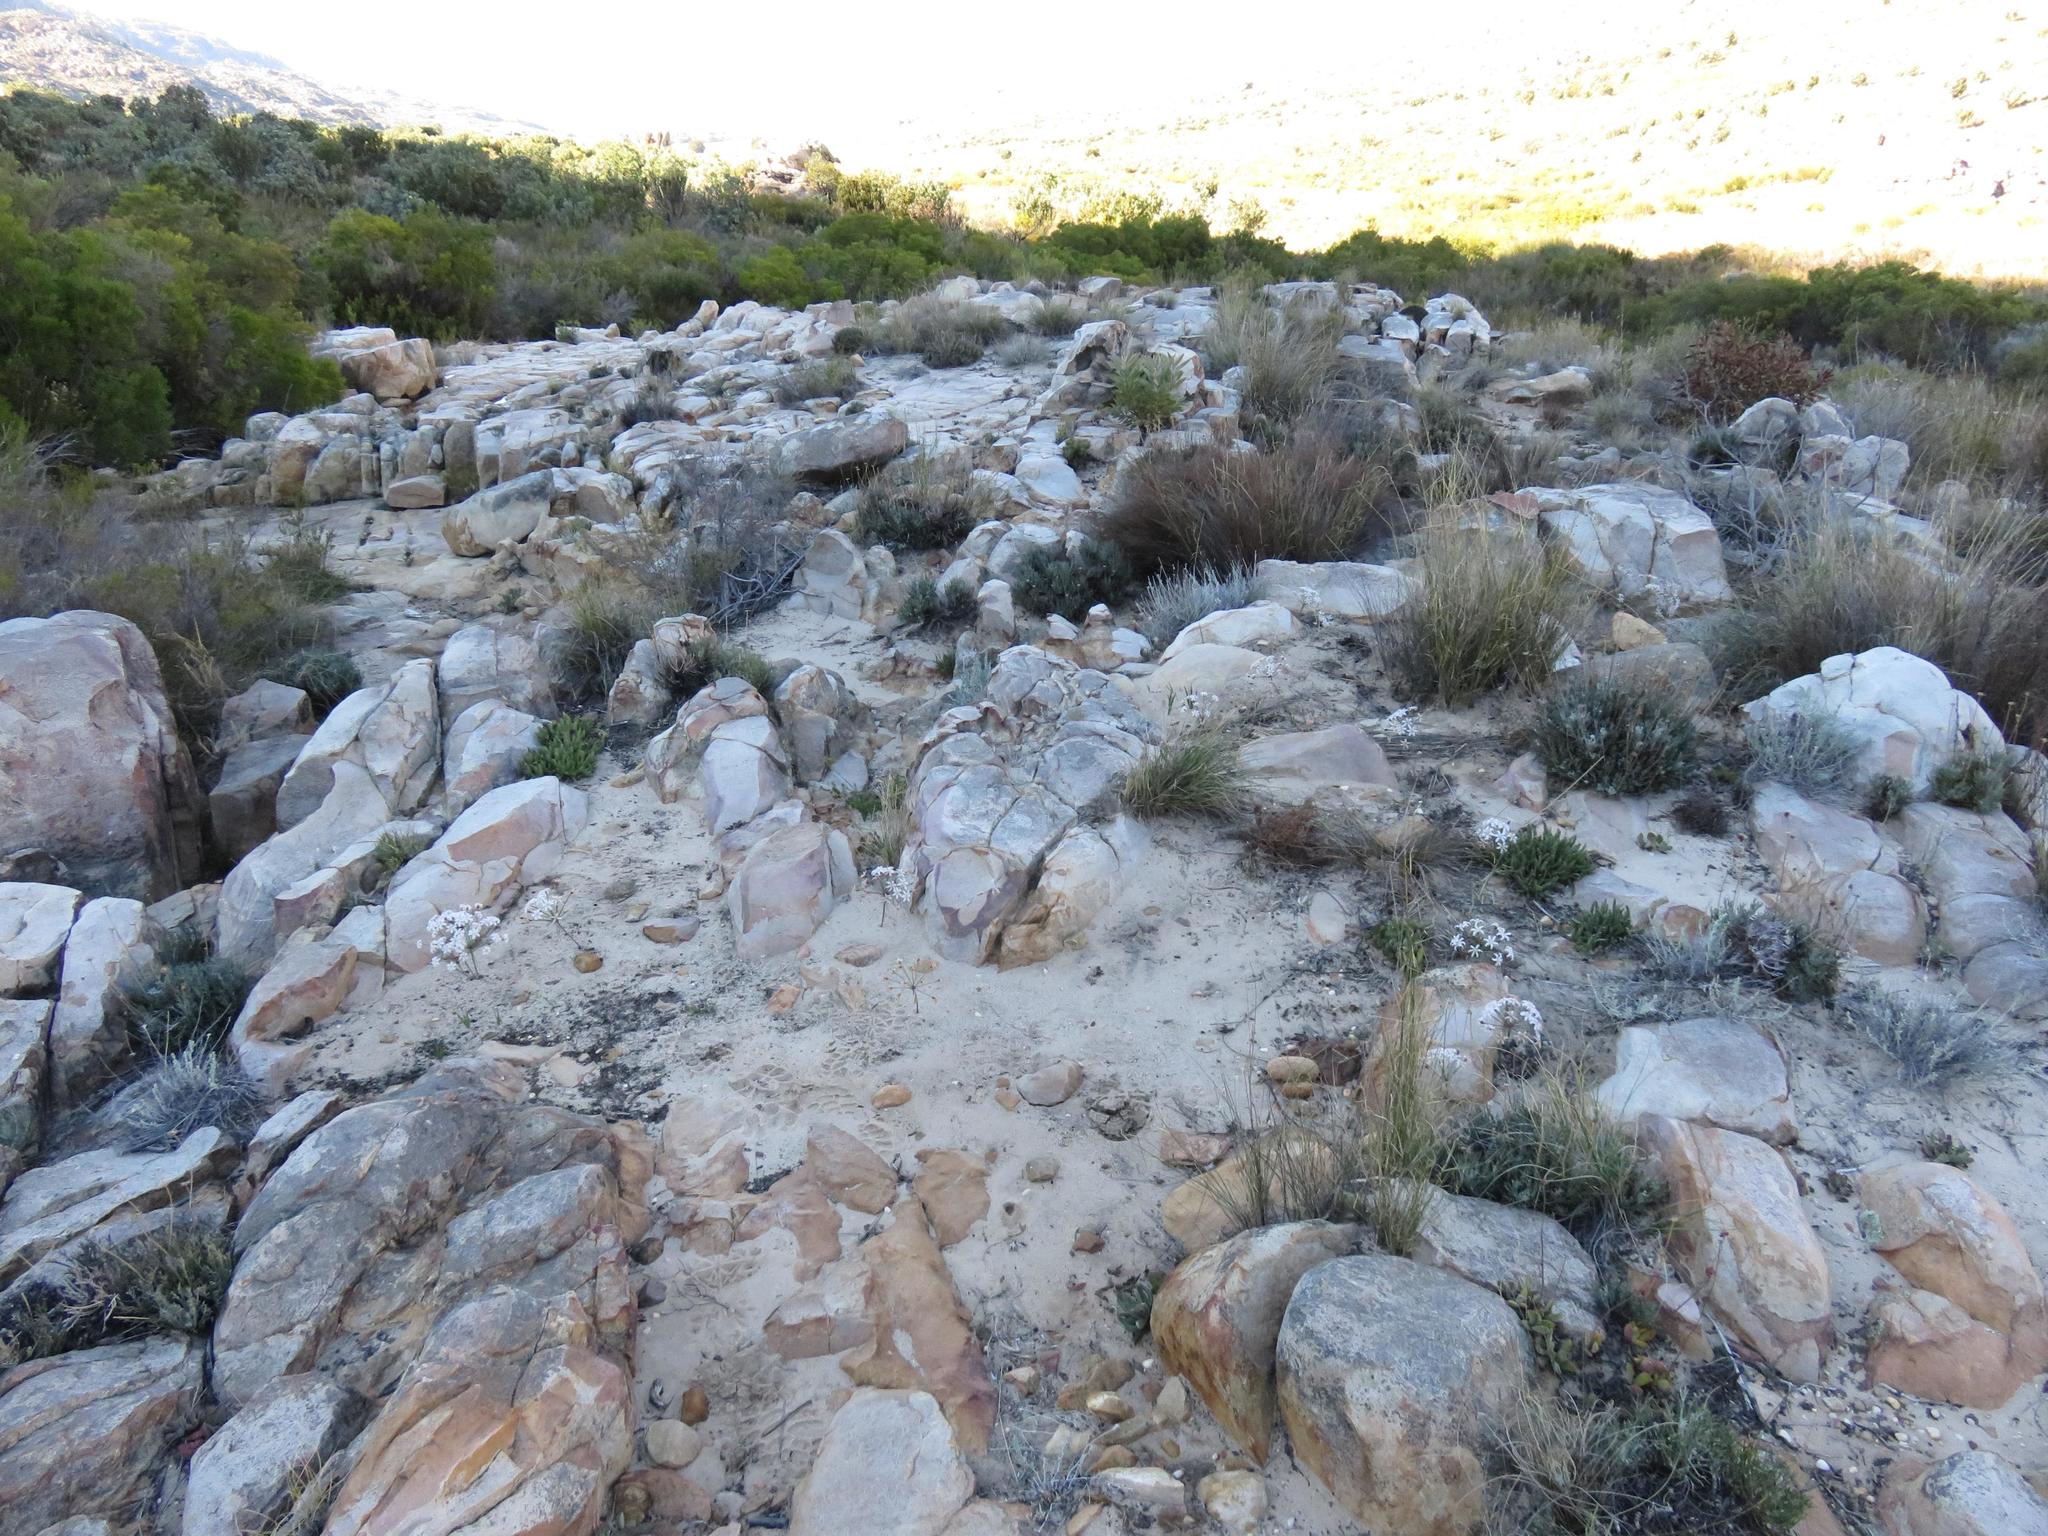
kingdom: Plantae
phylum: Tracheophyta
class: Liliopsida
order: Asparagales
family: Amaryllidaceae
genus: Hessea
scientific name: Hessea monticola
